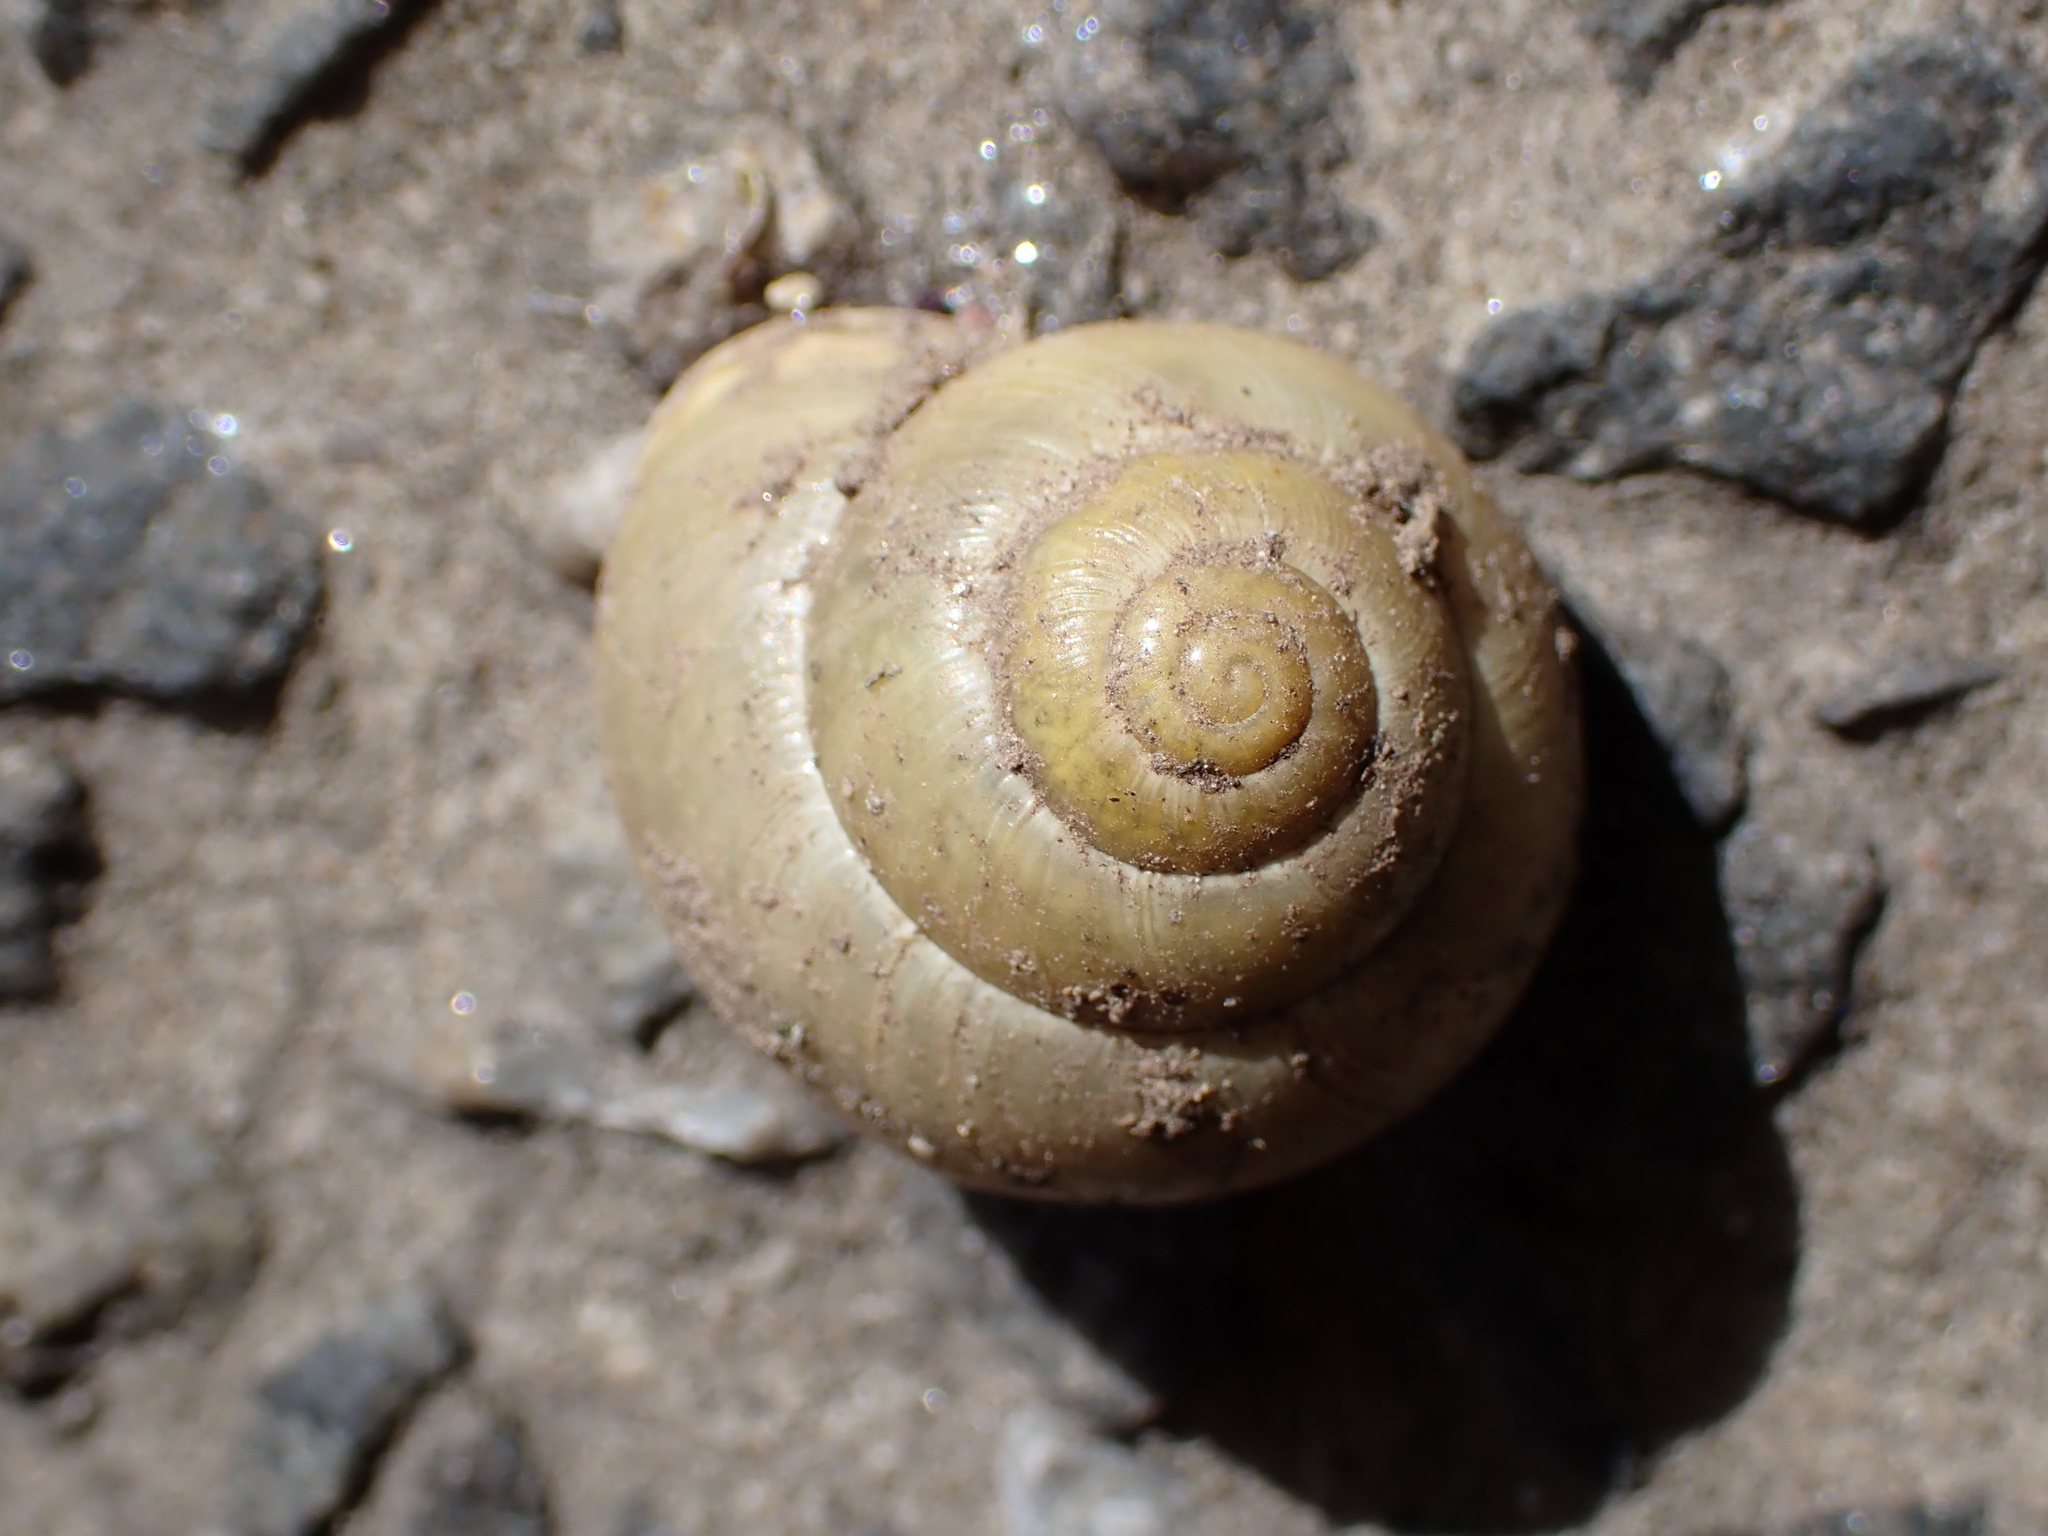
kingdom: Animalia
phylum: Mollusca
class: Gastropoda
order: Stylommatophora
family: Helicidae
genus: Cepaea
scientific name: Cepaea hortensis
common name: White-lip gardensnail
